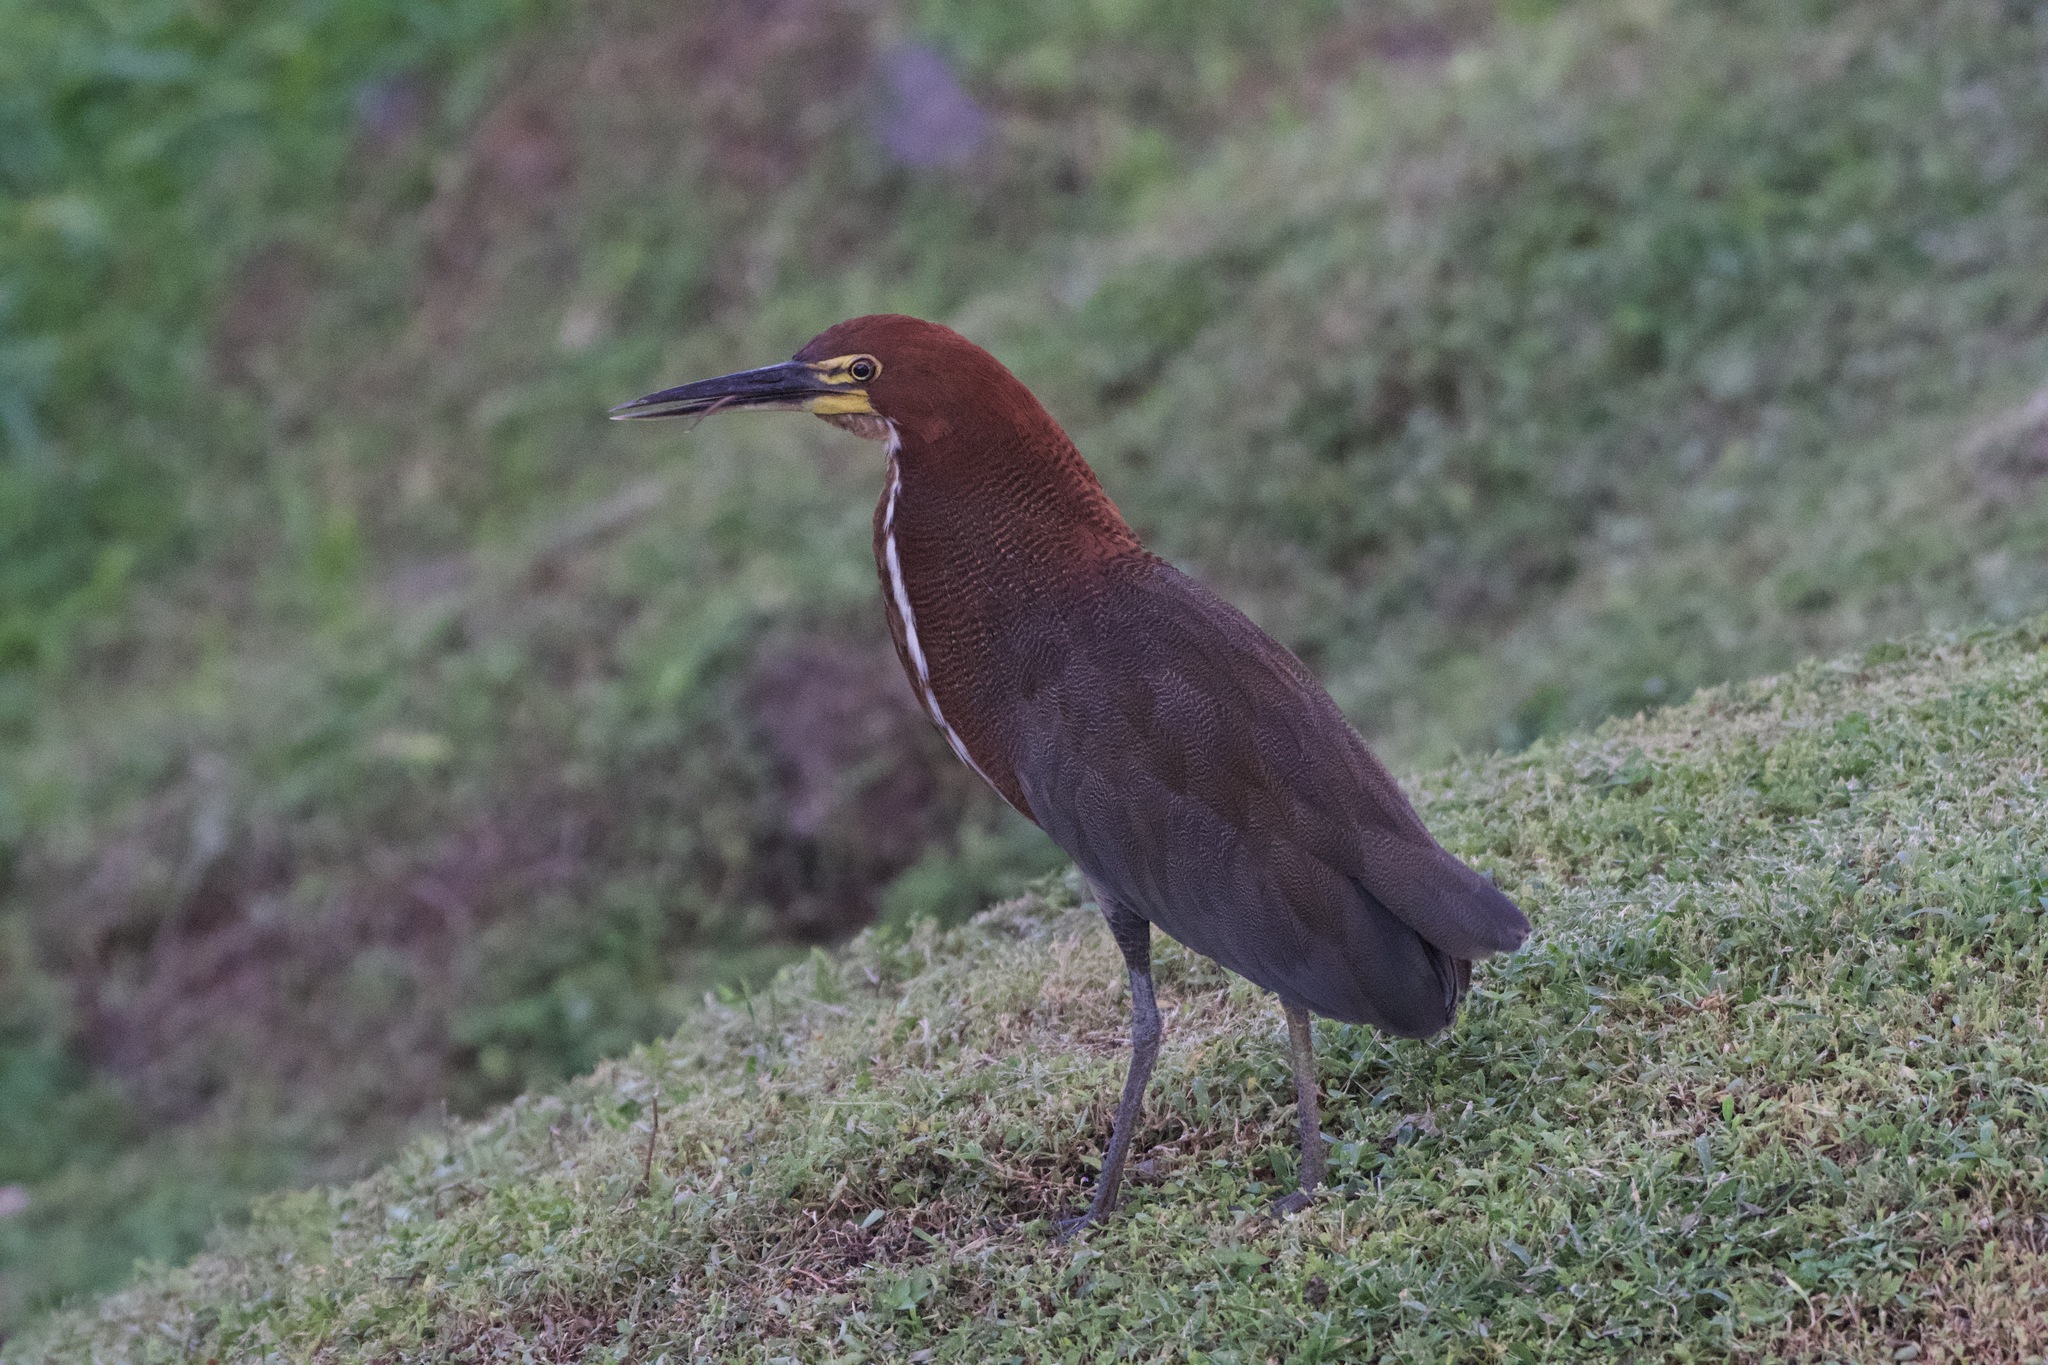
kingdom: Animalia
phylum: Chordata
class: Aves
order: Pelecaniformes
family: Ardeidae
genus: Tigrisoma
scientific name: Tigrisoma lineatum
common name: Rufescent tiger-heron
